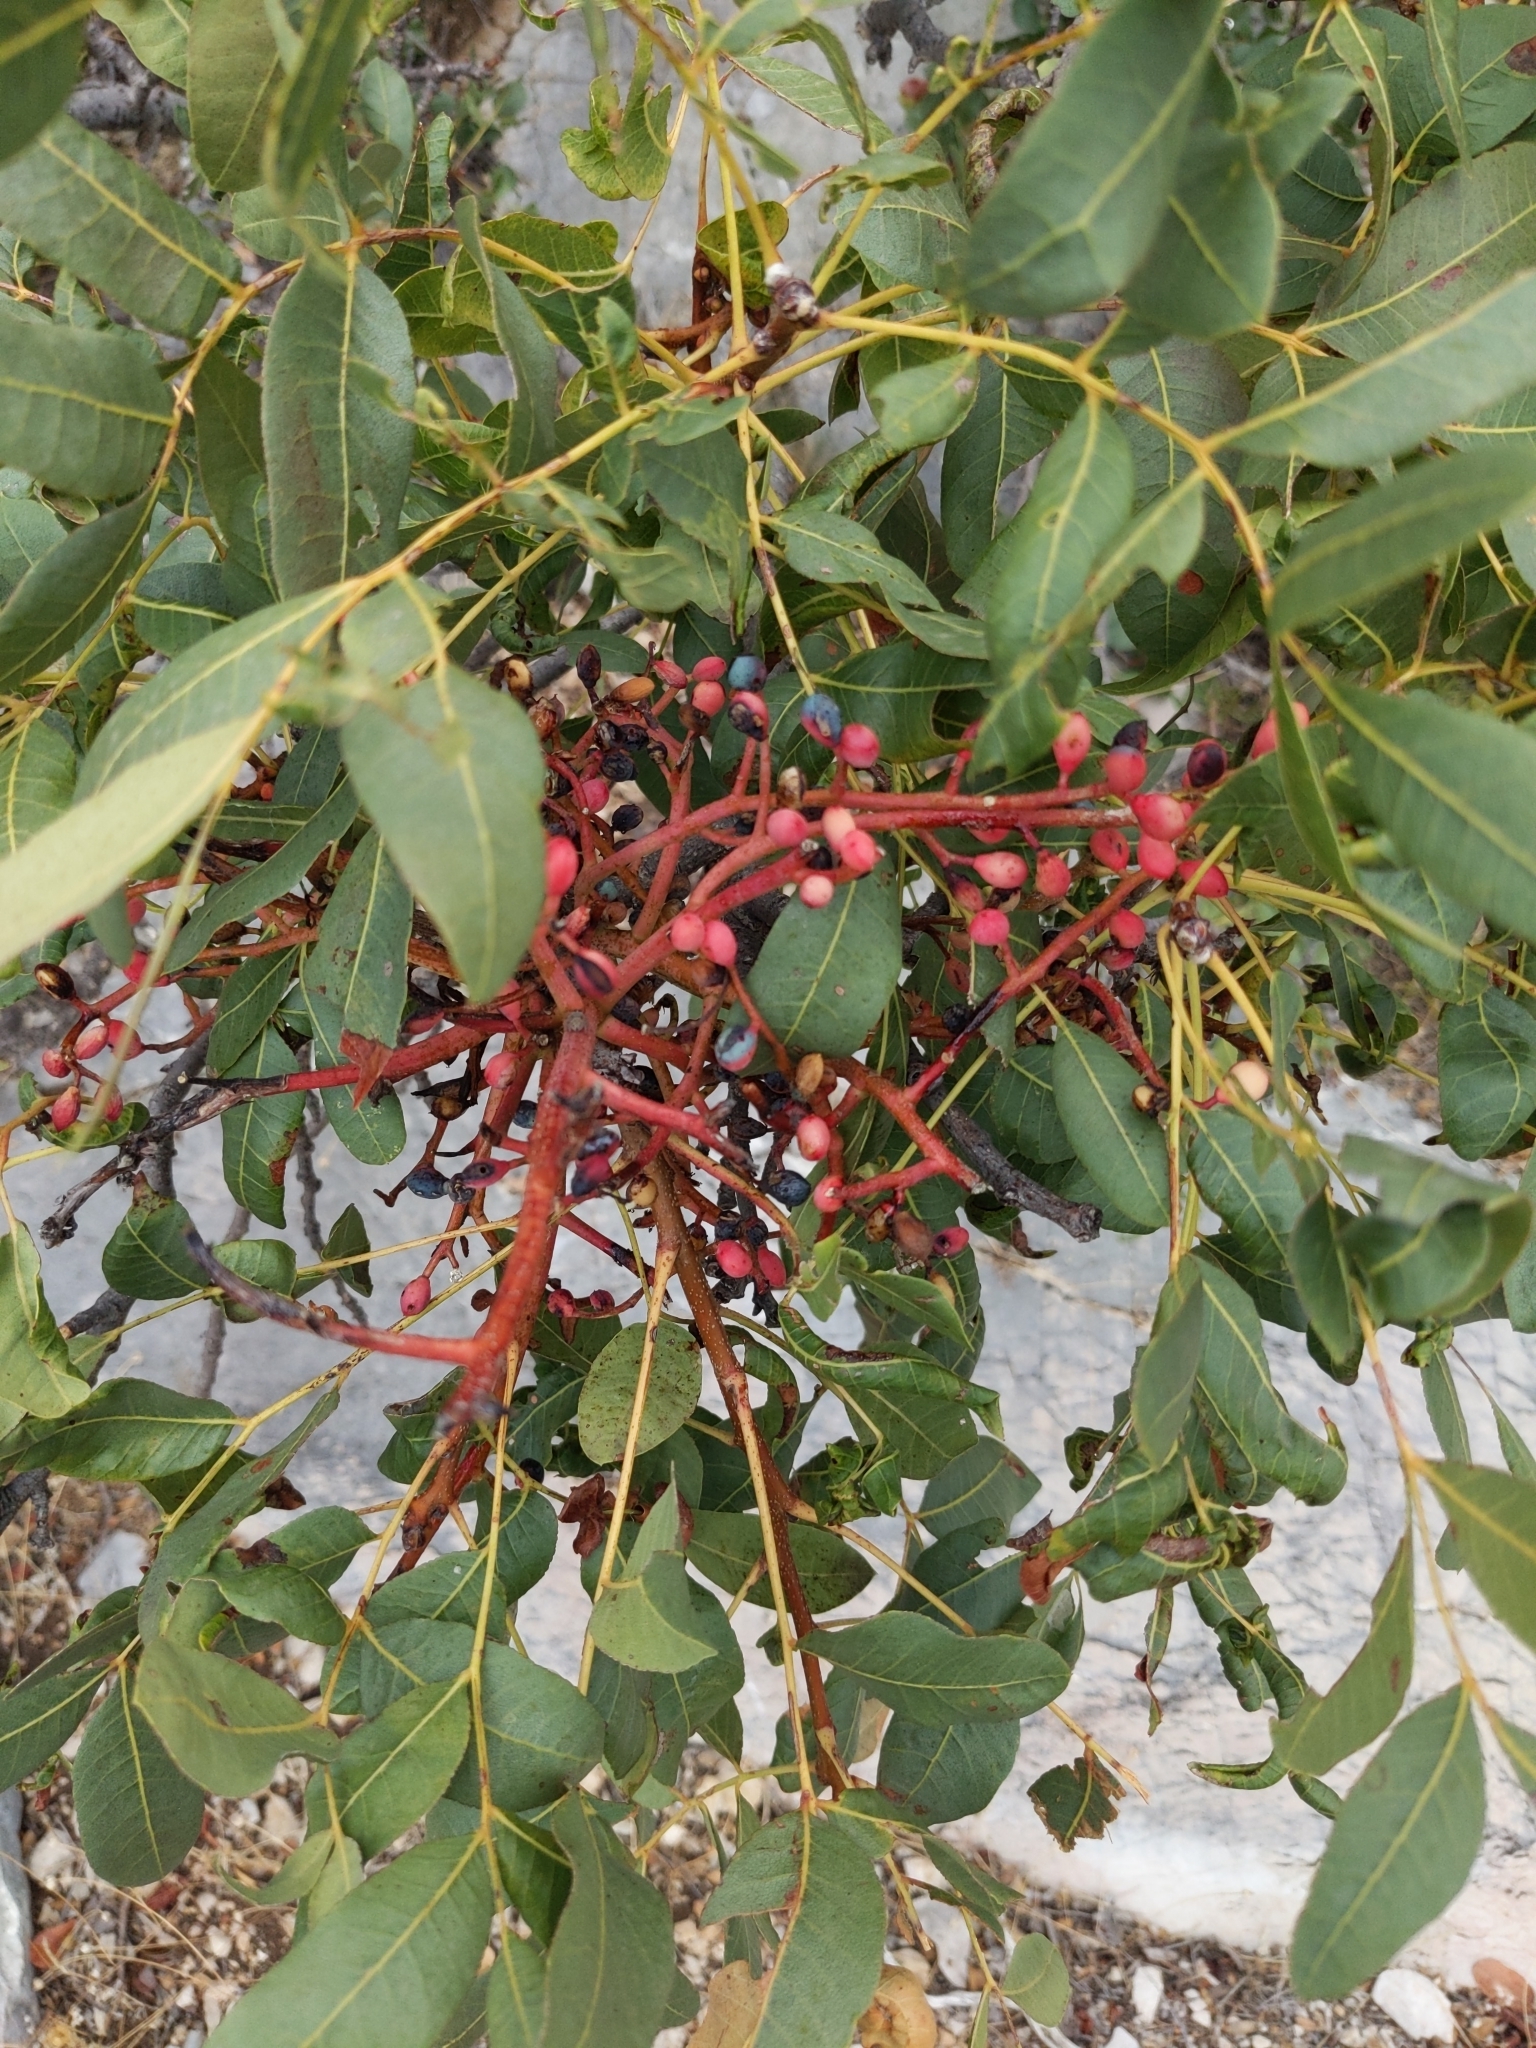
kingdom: Plantae
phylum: Tracheophyta
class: Magnoliopsida
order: Sapindales
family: Anacardiaceae
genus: Pistacia
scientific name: Pistacia terebinthus
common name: Terebinth
